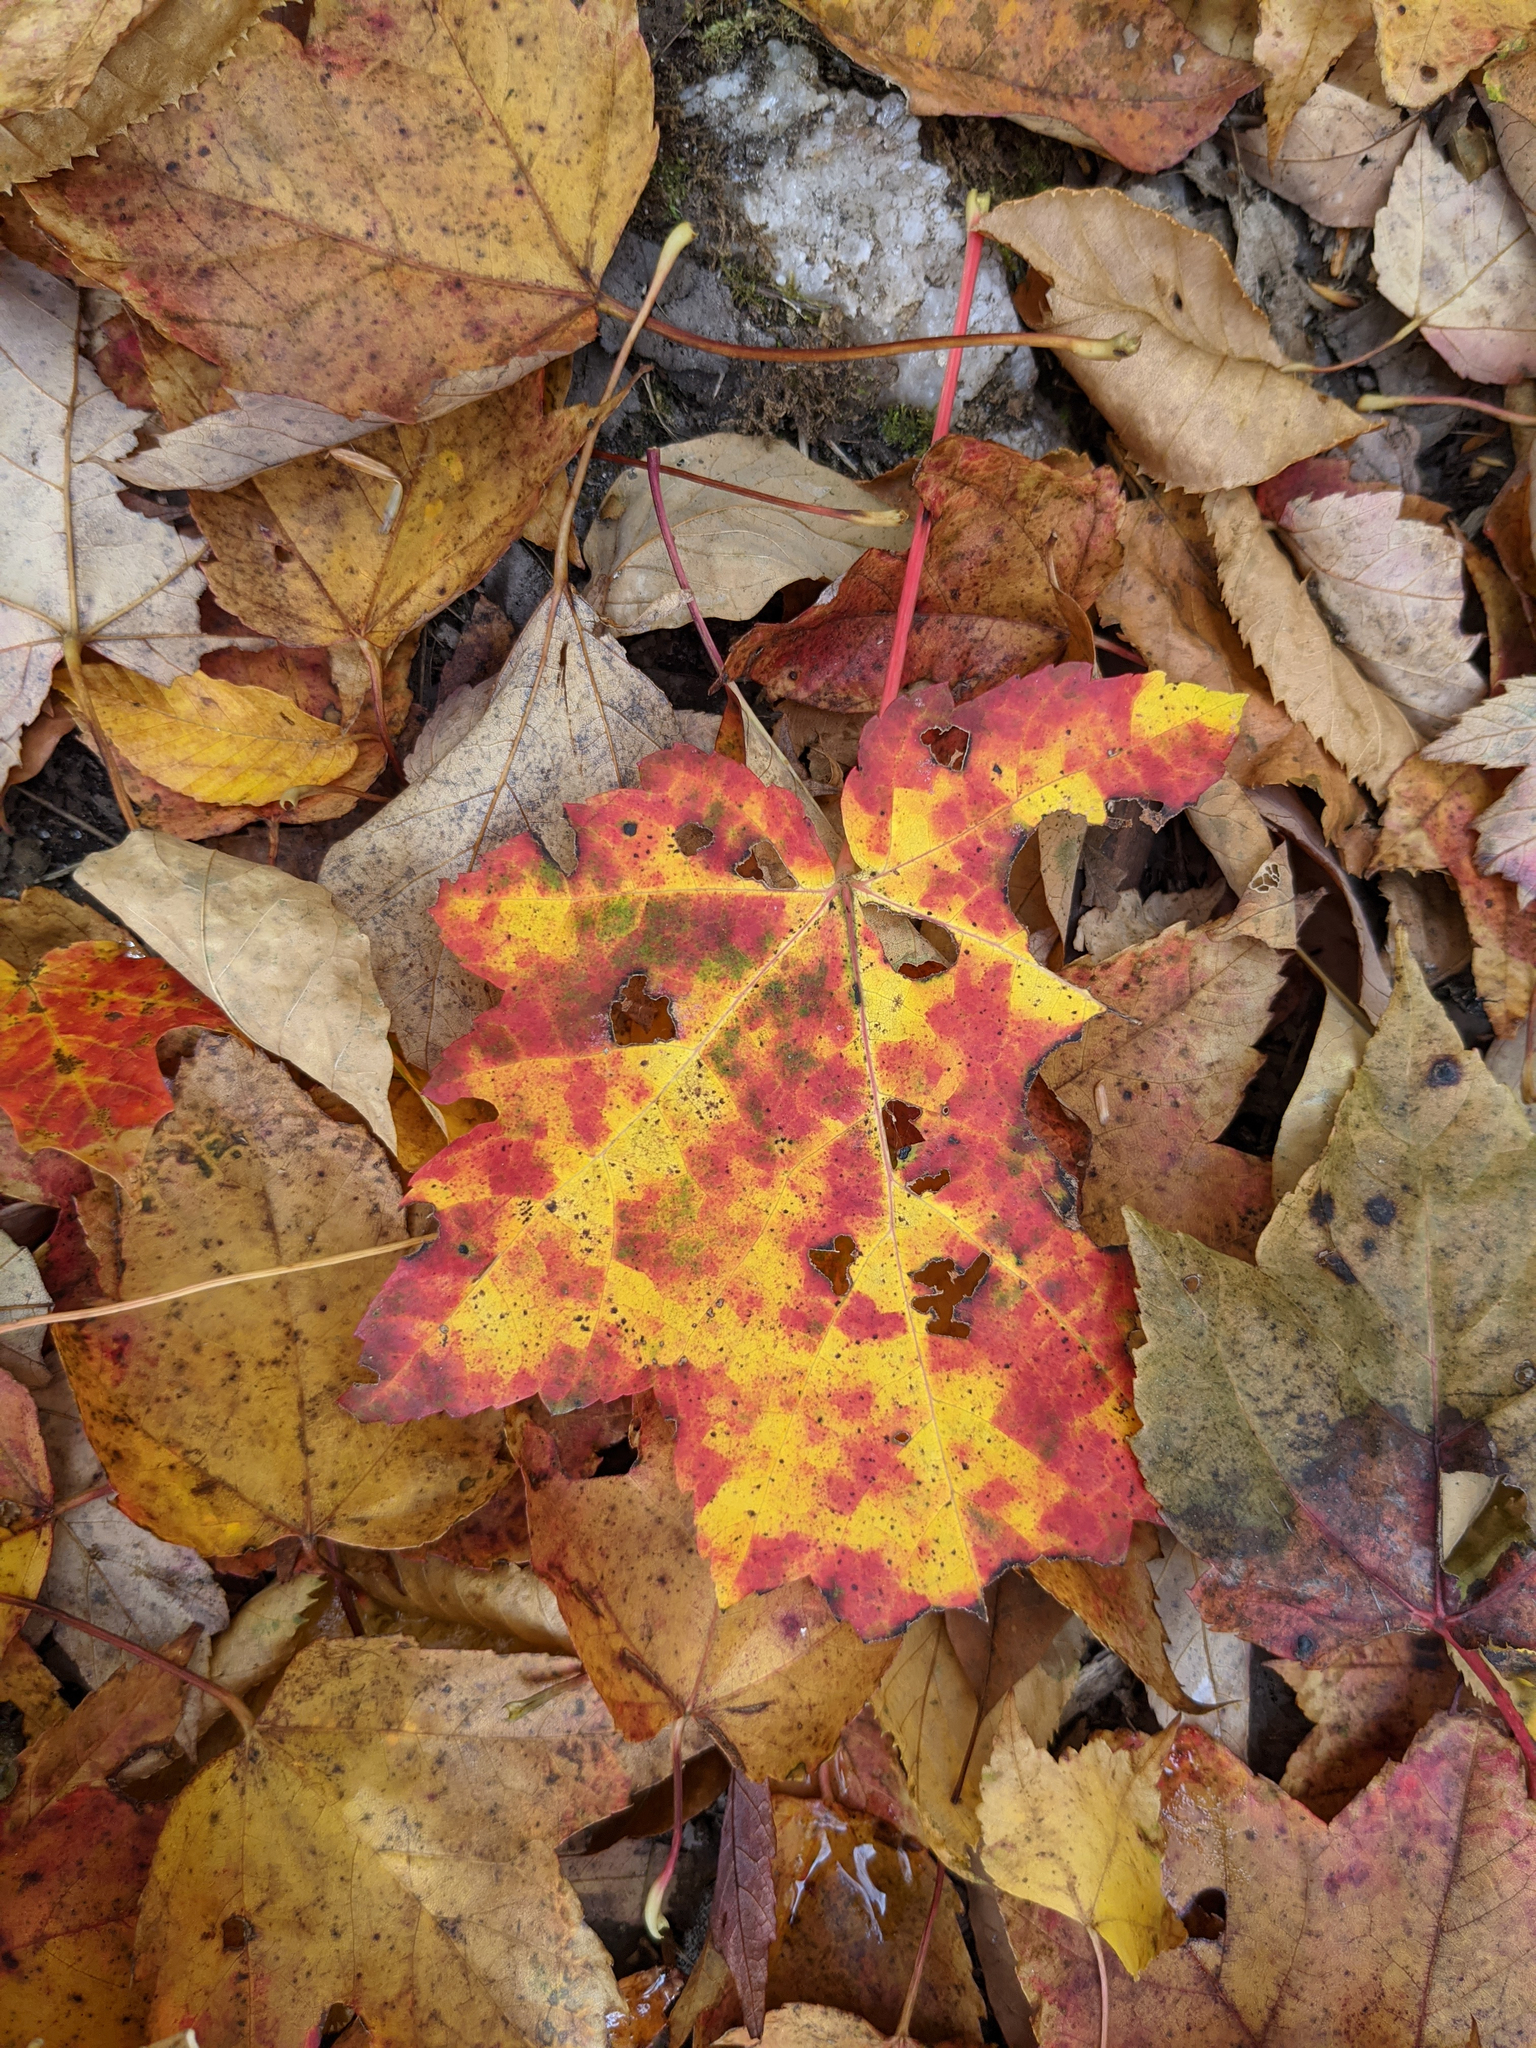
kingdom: Plantae
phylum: Tracheophyta
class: Magnoliopsida
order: Sapindales
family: Sapindaceae
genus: Acer
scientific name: Acer rubrum
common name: Red maple
